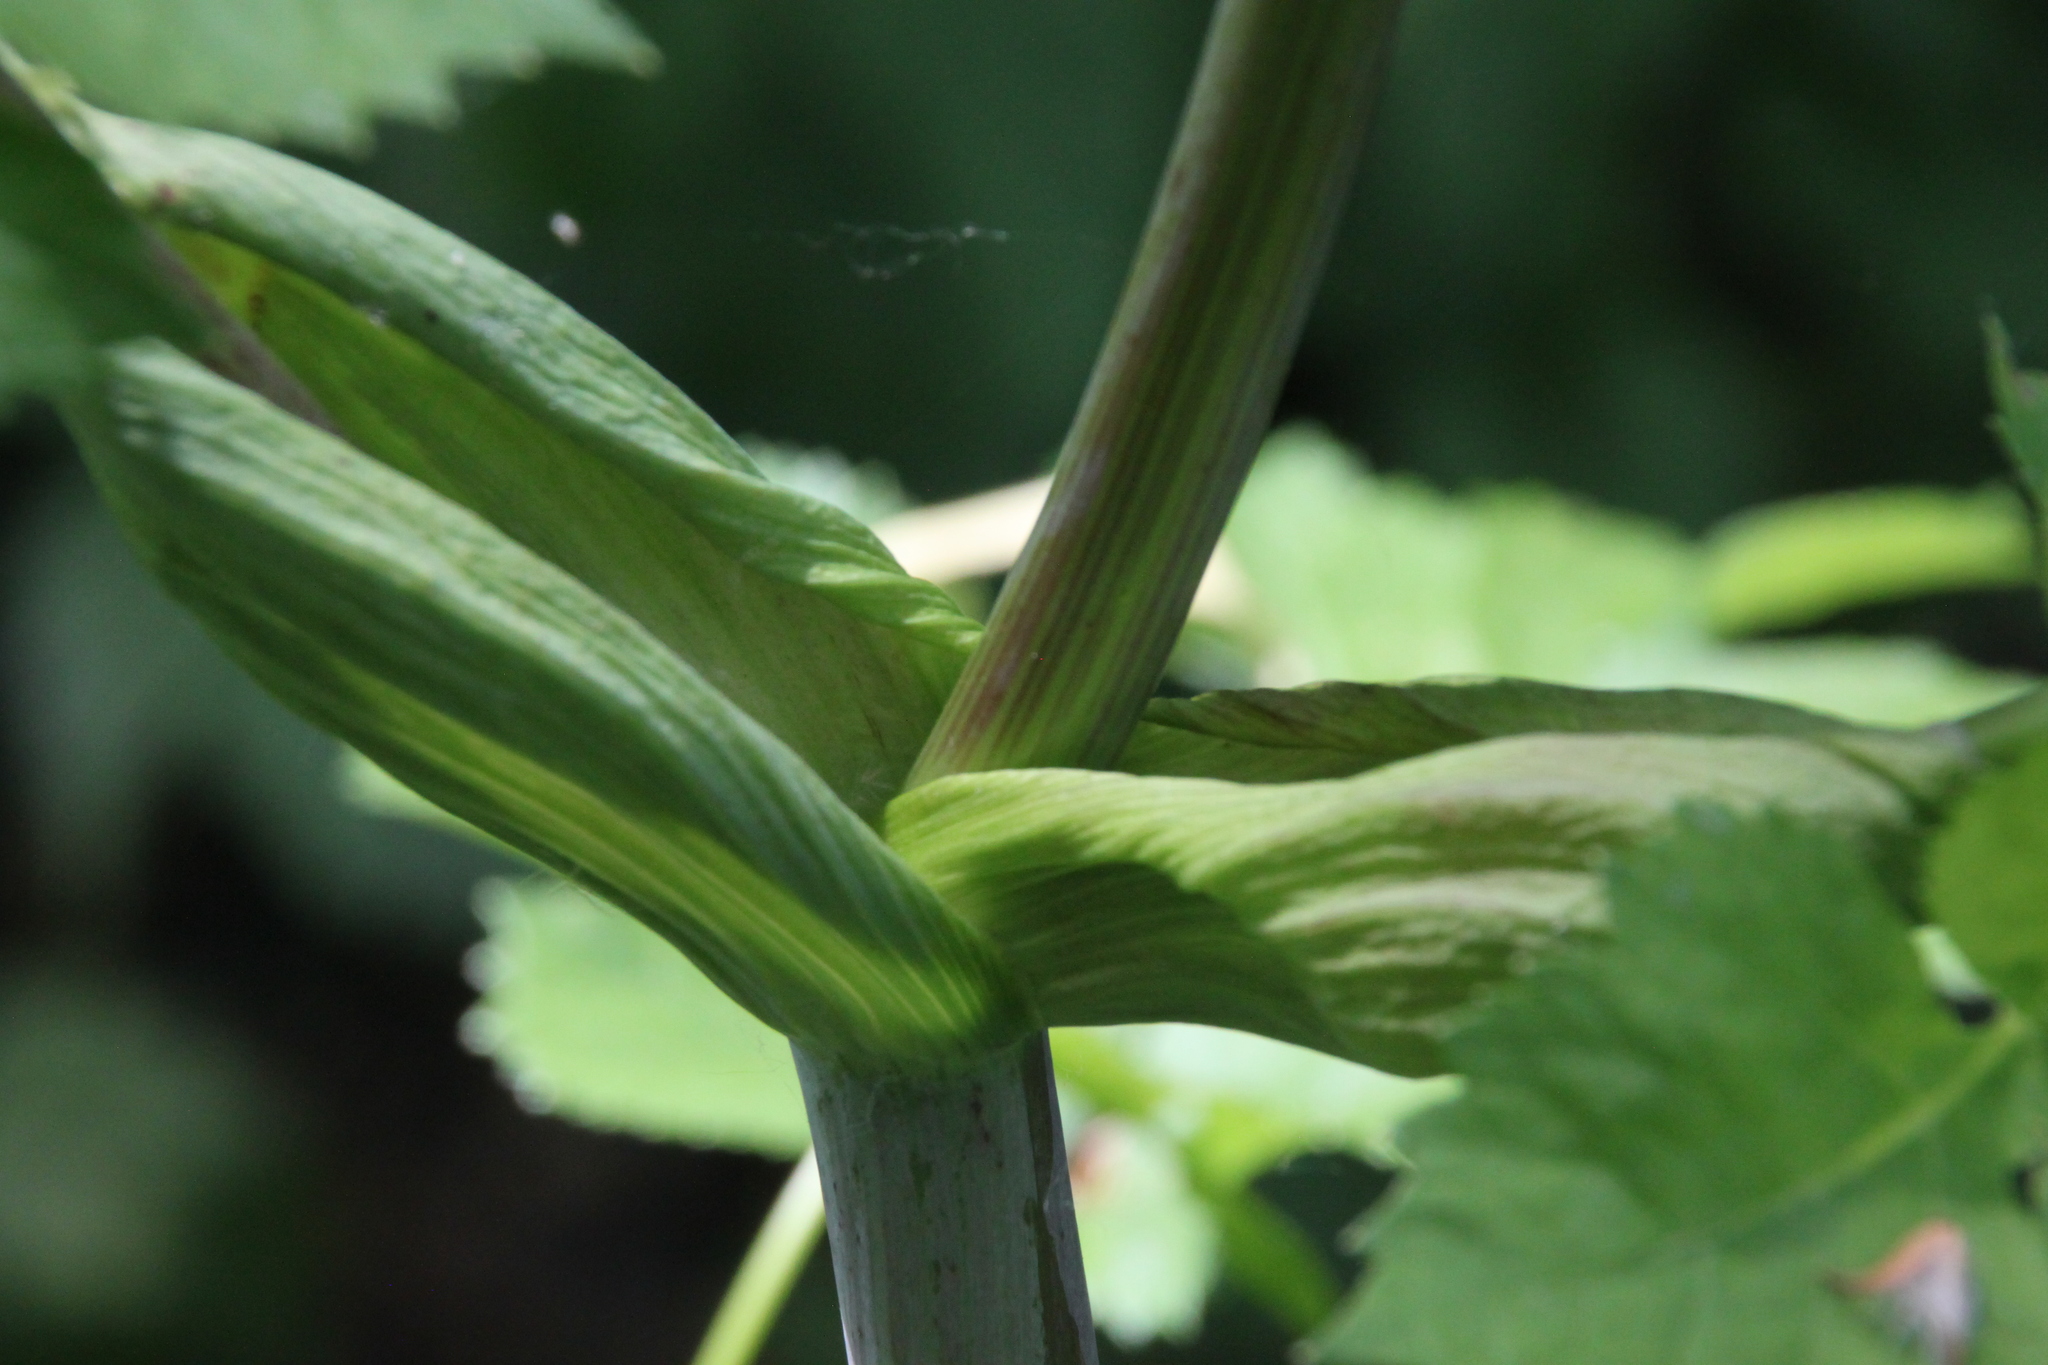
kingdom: Plantae
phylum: Tracheophyta
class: Magnoliopsida
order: Apiales
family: Apiaceae
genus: Angelica
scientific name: Angelica archangelica
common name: Garden angelica
